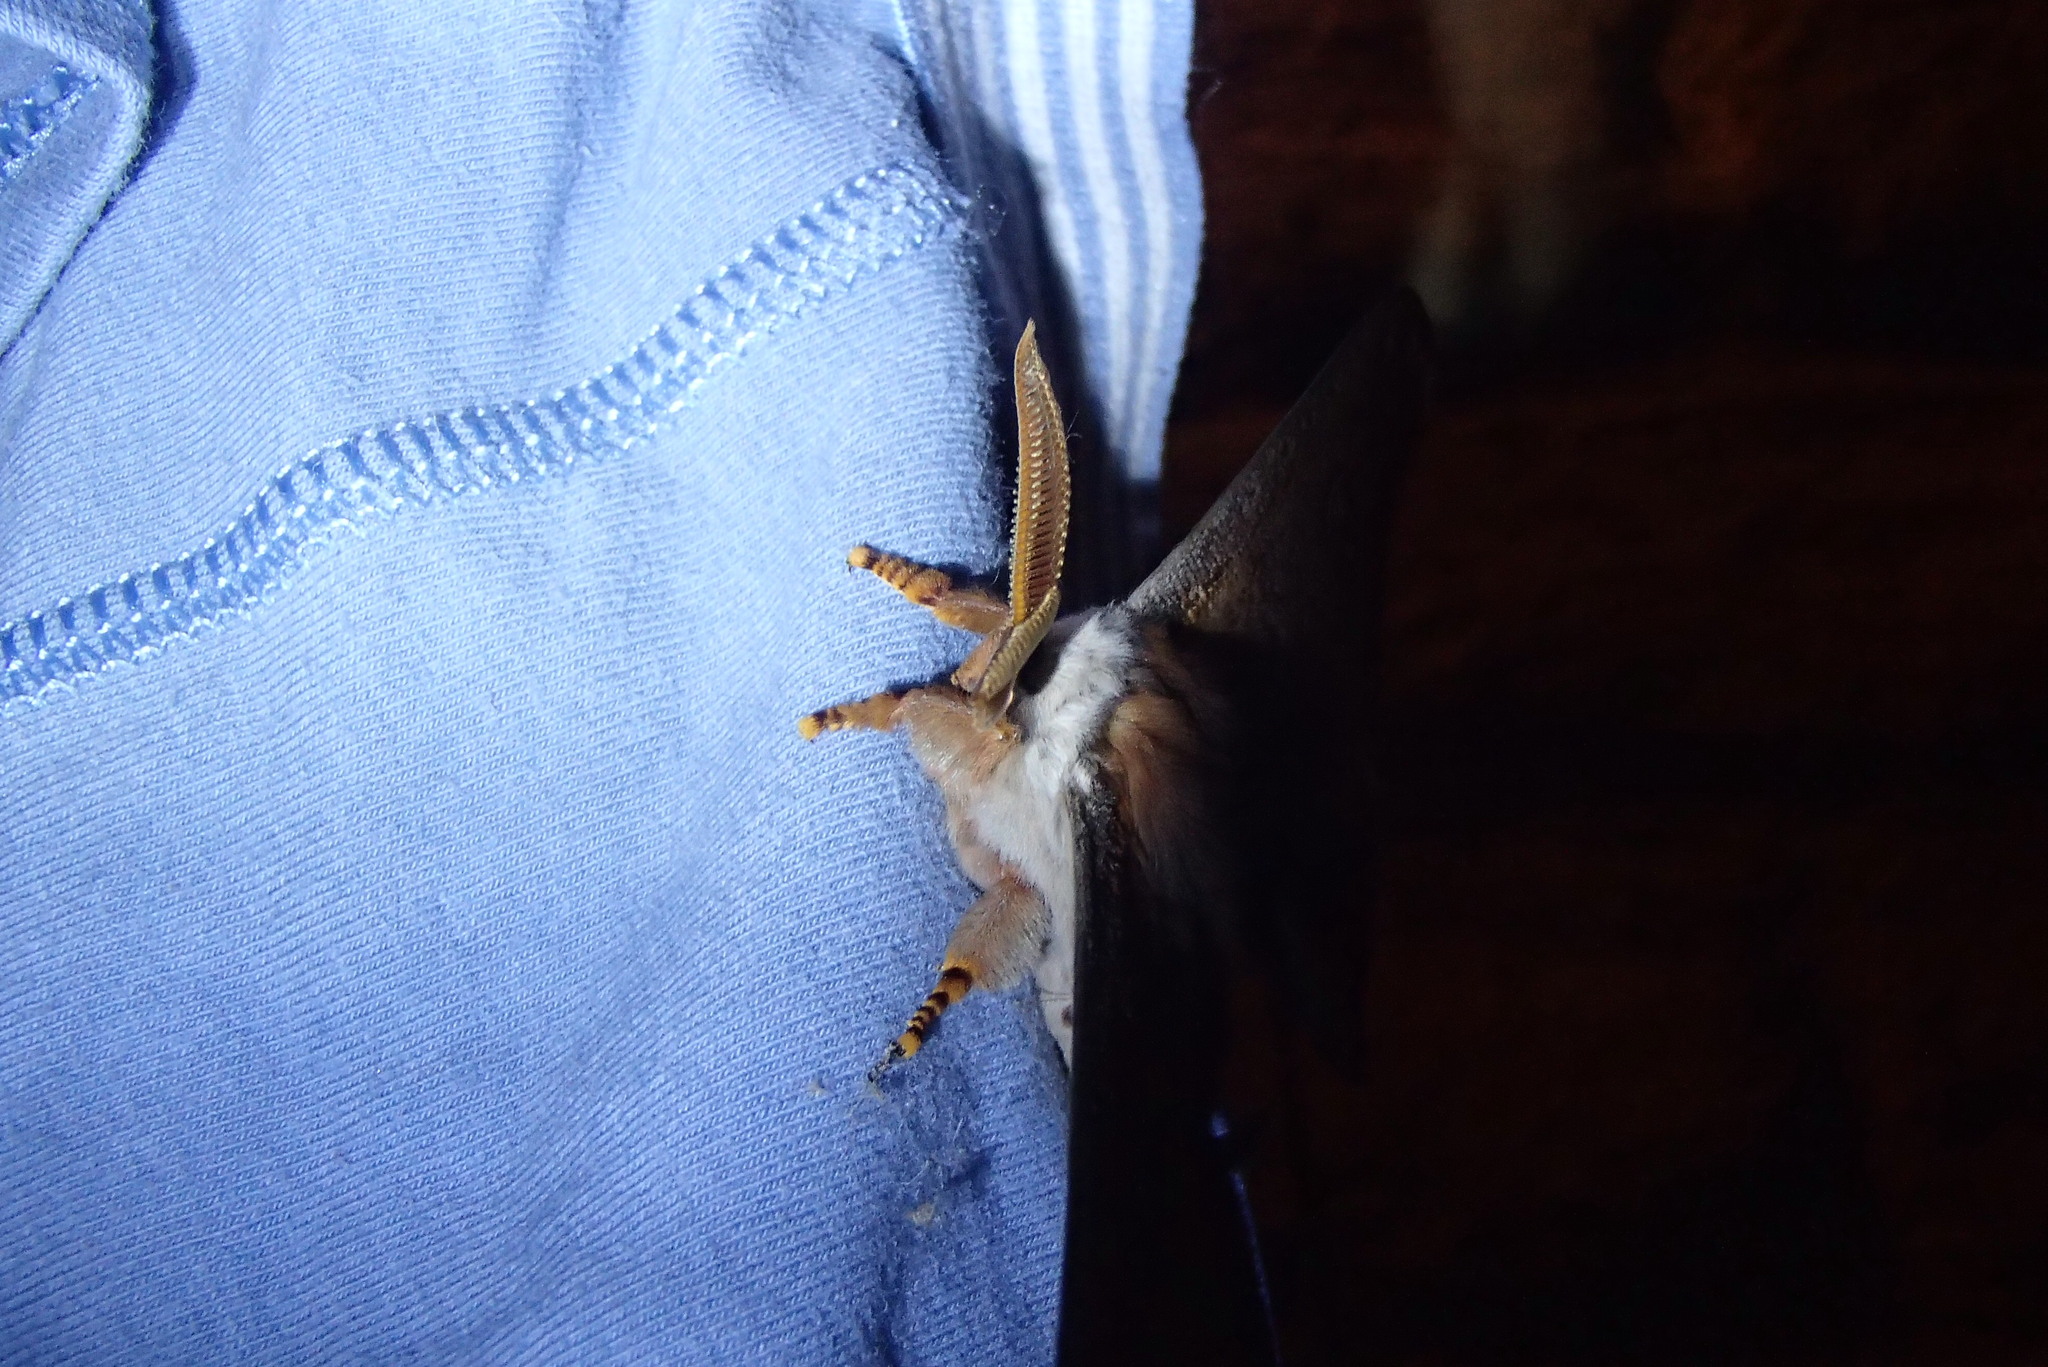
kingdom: Animalia
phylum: Arthropoda
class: Insecta
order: Lepidoptera
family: Saturniidae
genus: Opodiphthera
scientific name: Opodiphthera
